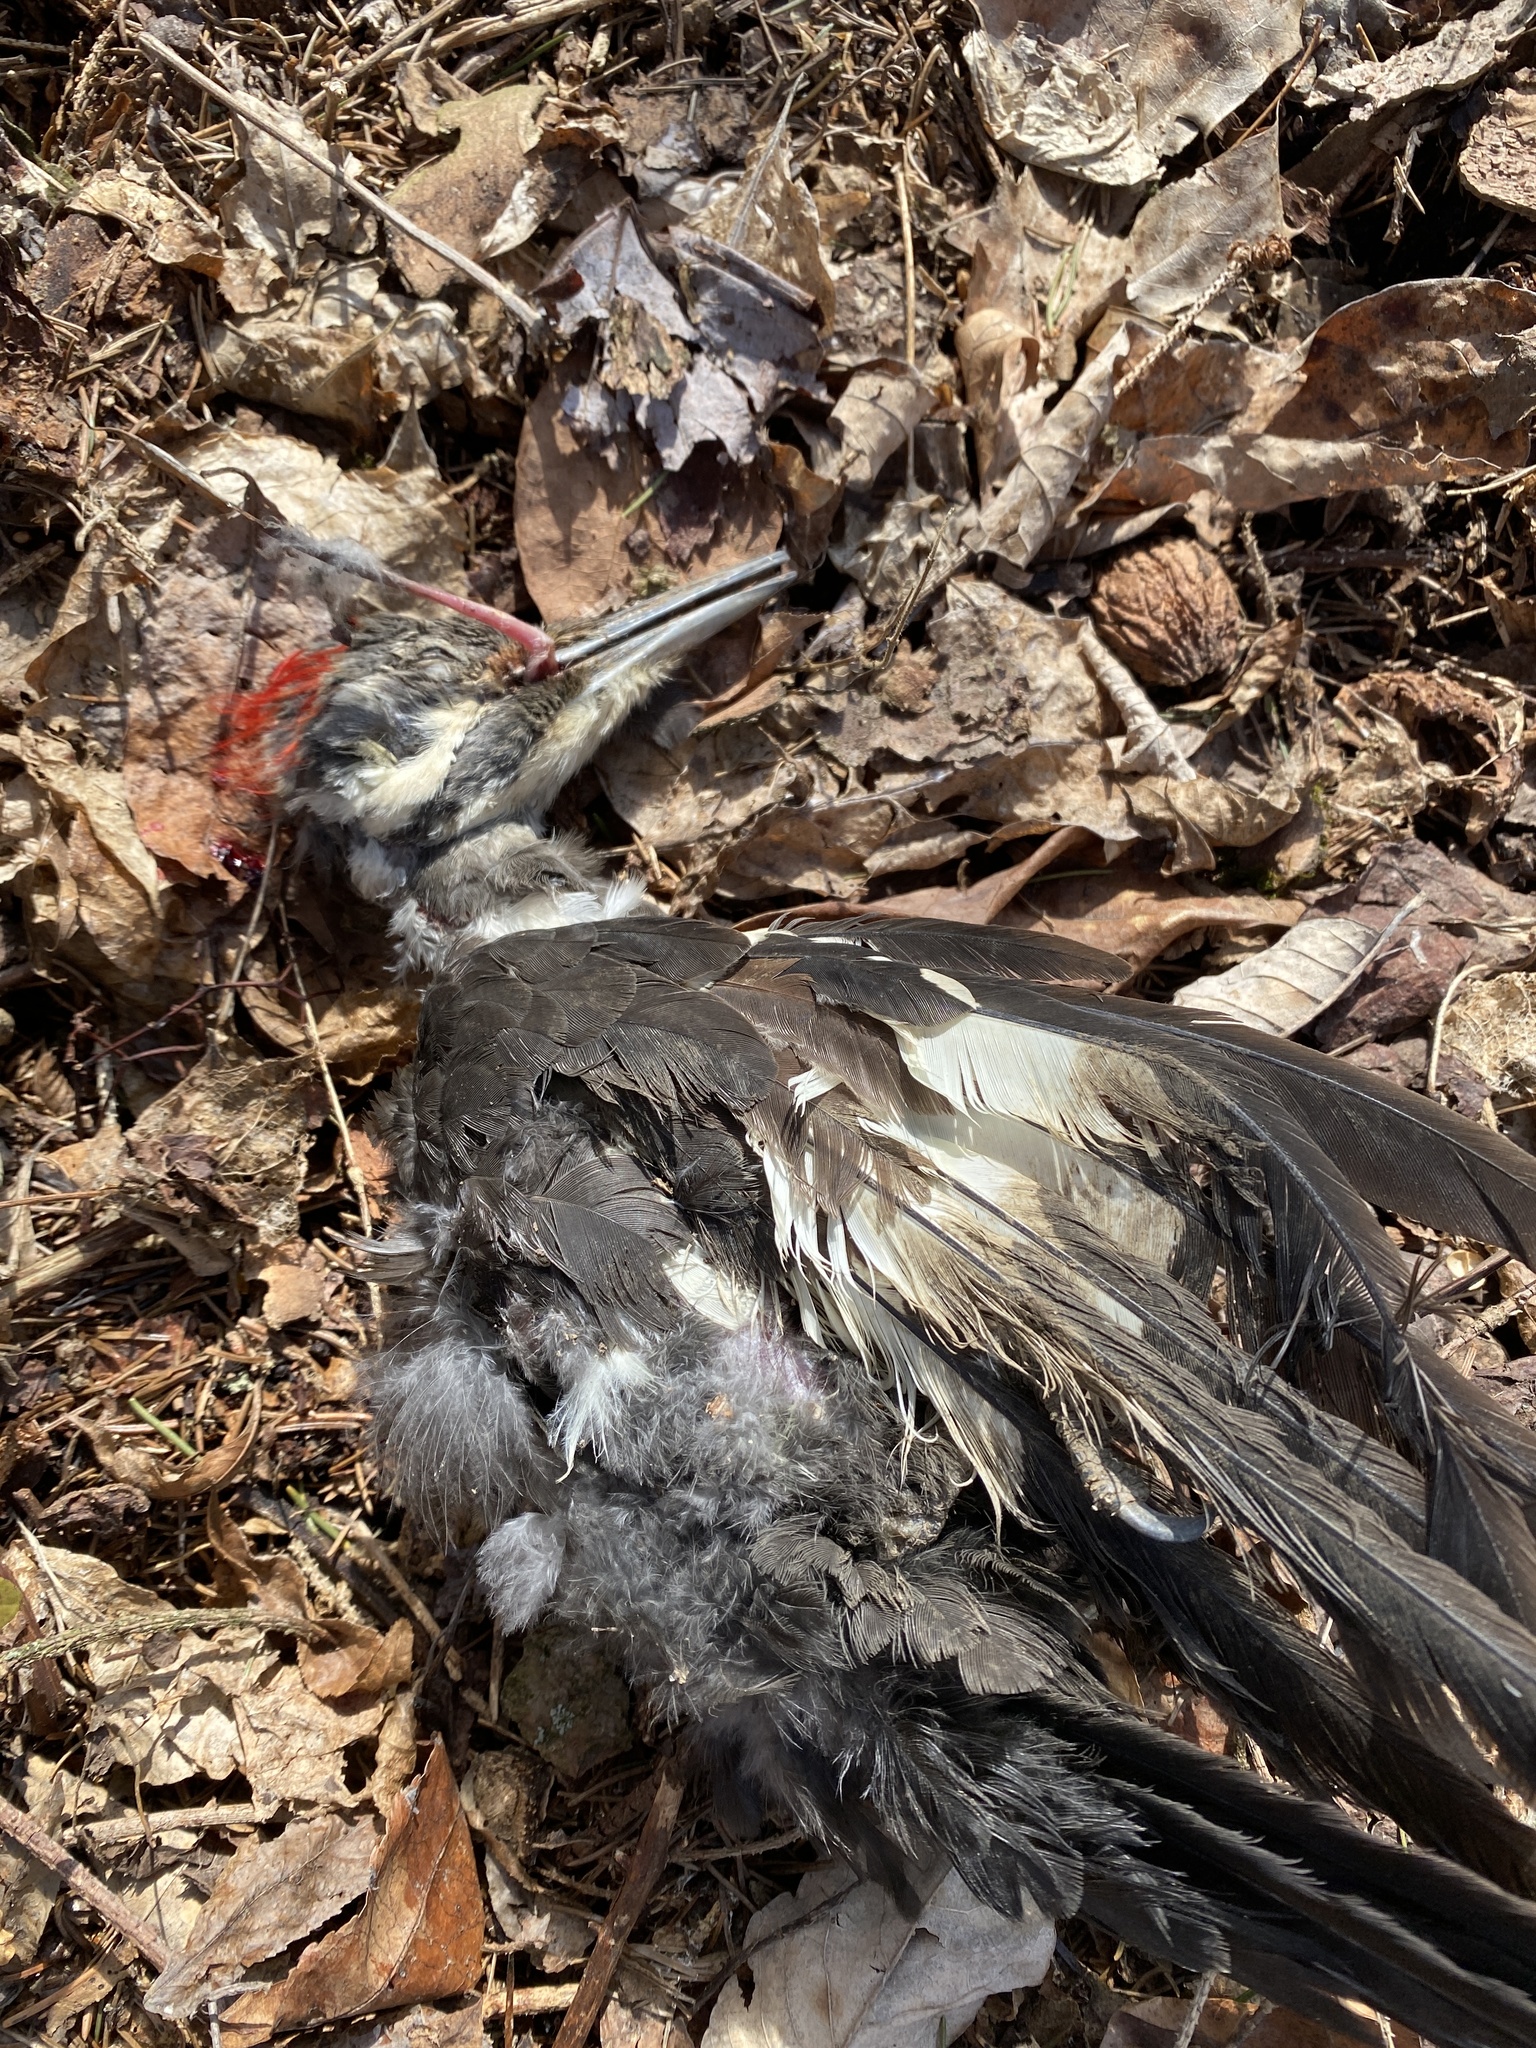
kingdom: Animalia
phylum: Chordata
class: Aves
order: Piciformes
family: Picidae
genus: Dryocopus
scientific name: Dryocopus pileatus
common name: Pileated woodpecker
